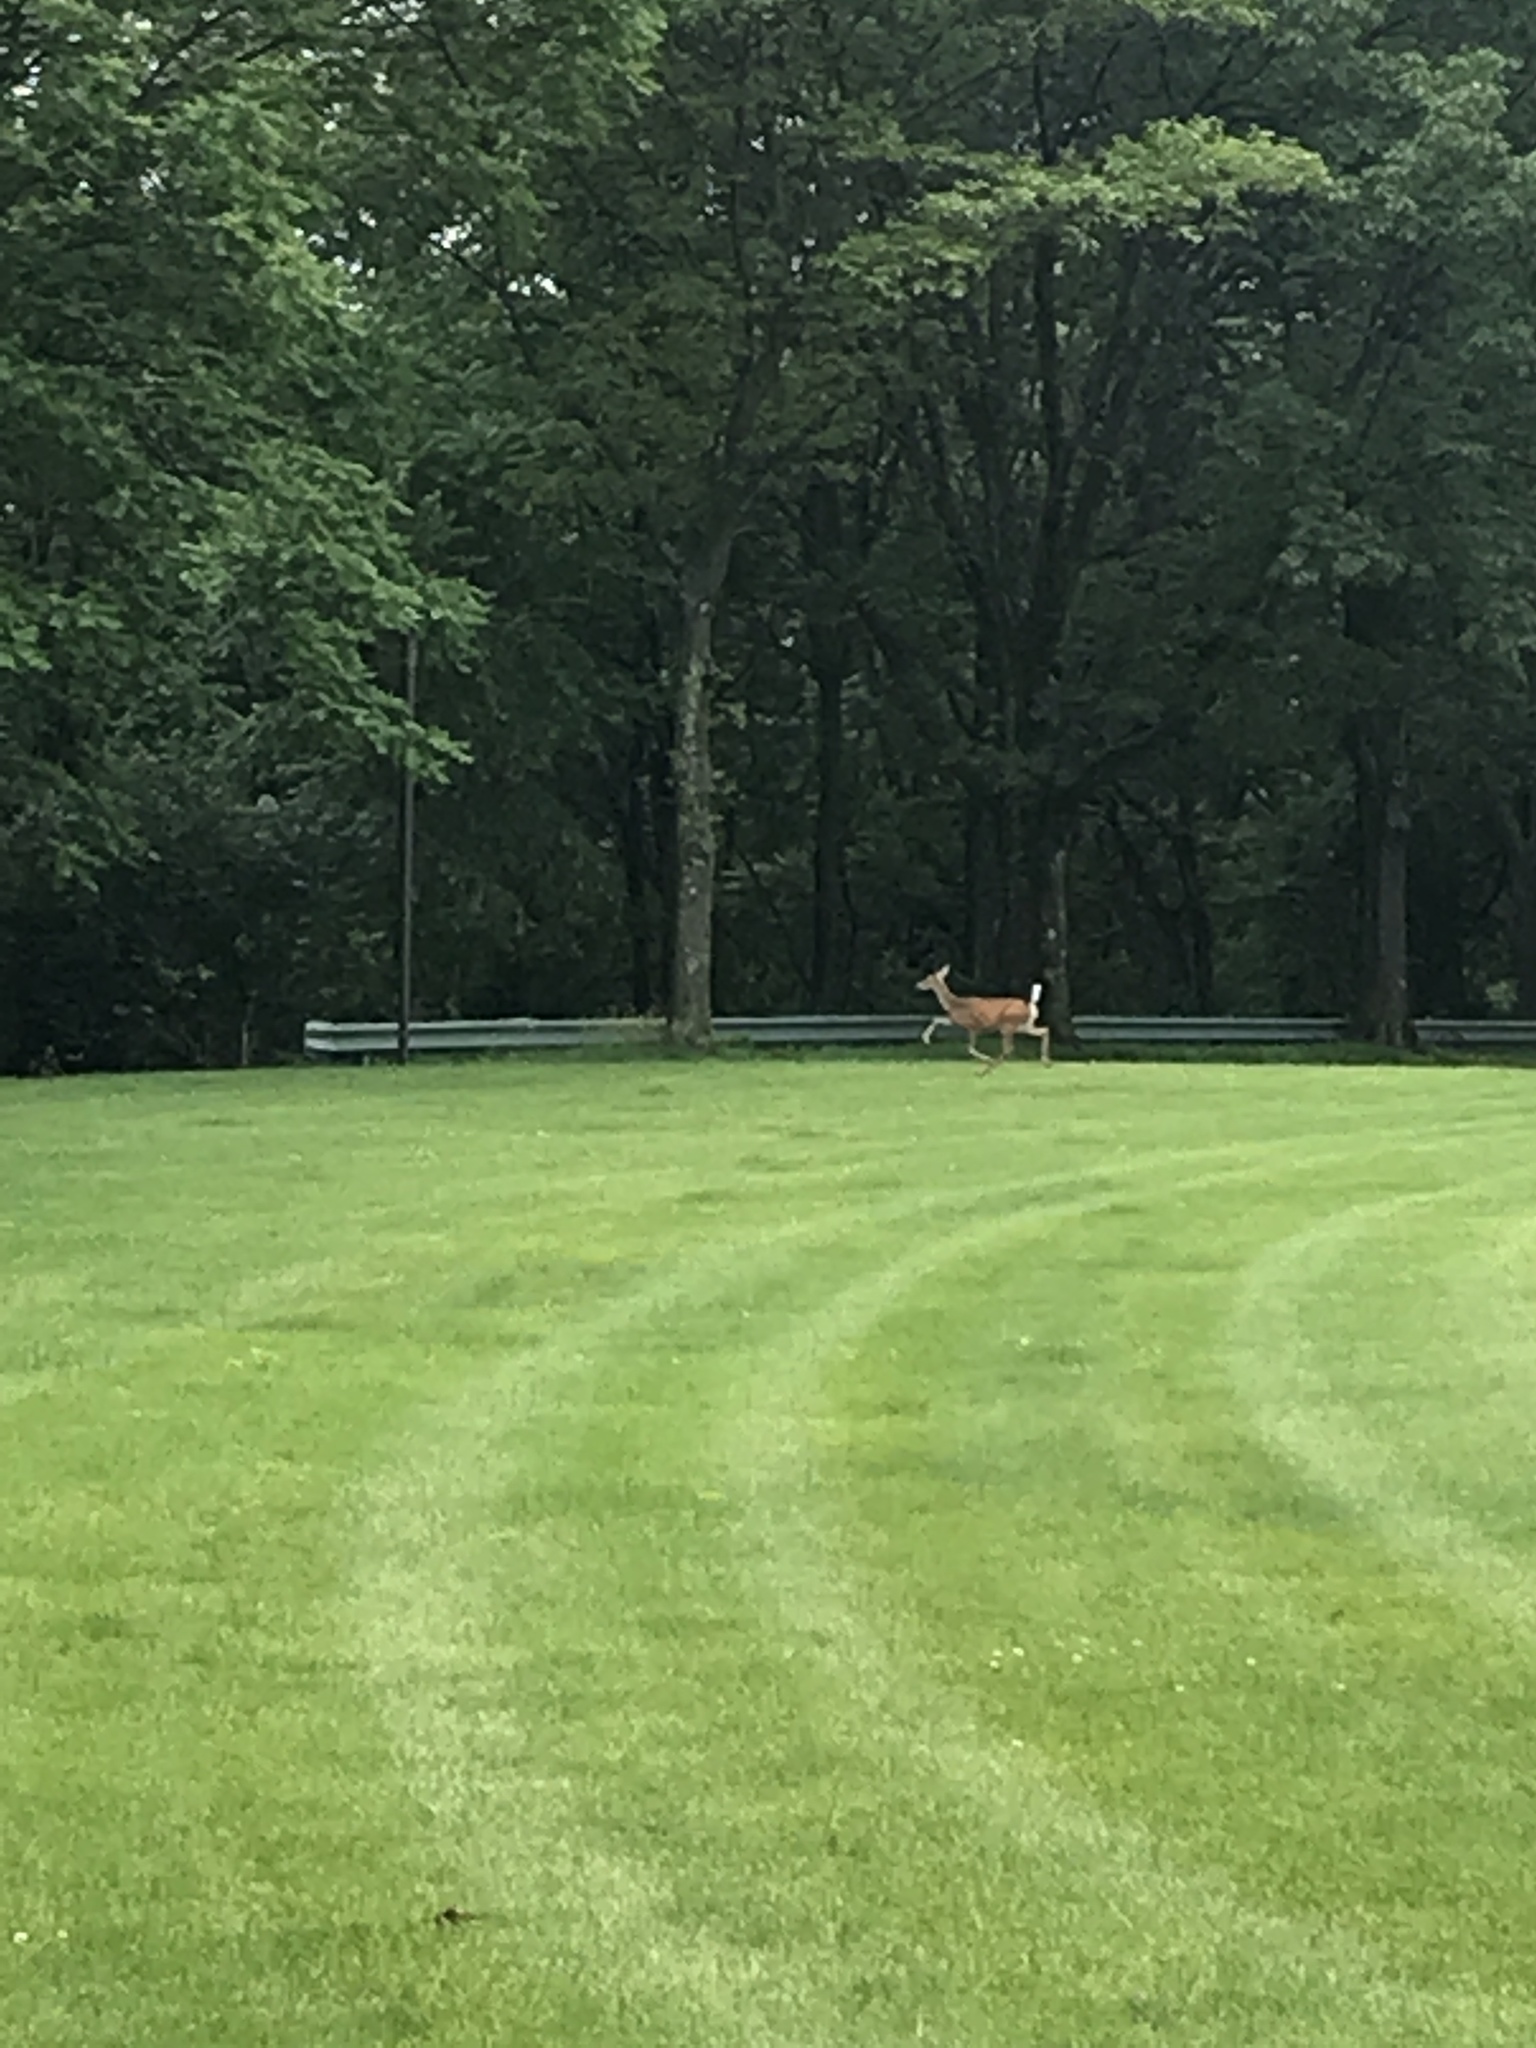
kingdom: Animalia
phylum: Chordata
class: Mammalia
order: Artiodactyla
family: Cervidae
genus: Odocoileus
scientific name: Odocoileus virginianus
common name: White-tailed deer
